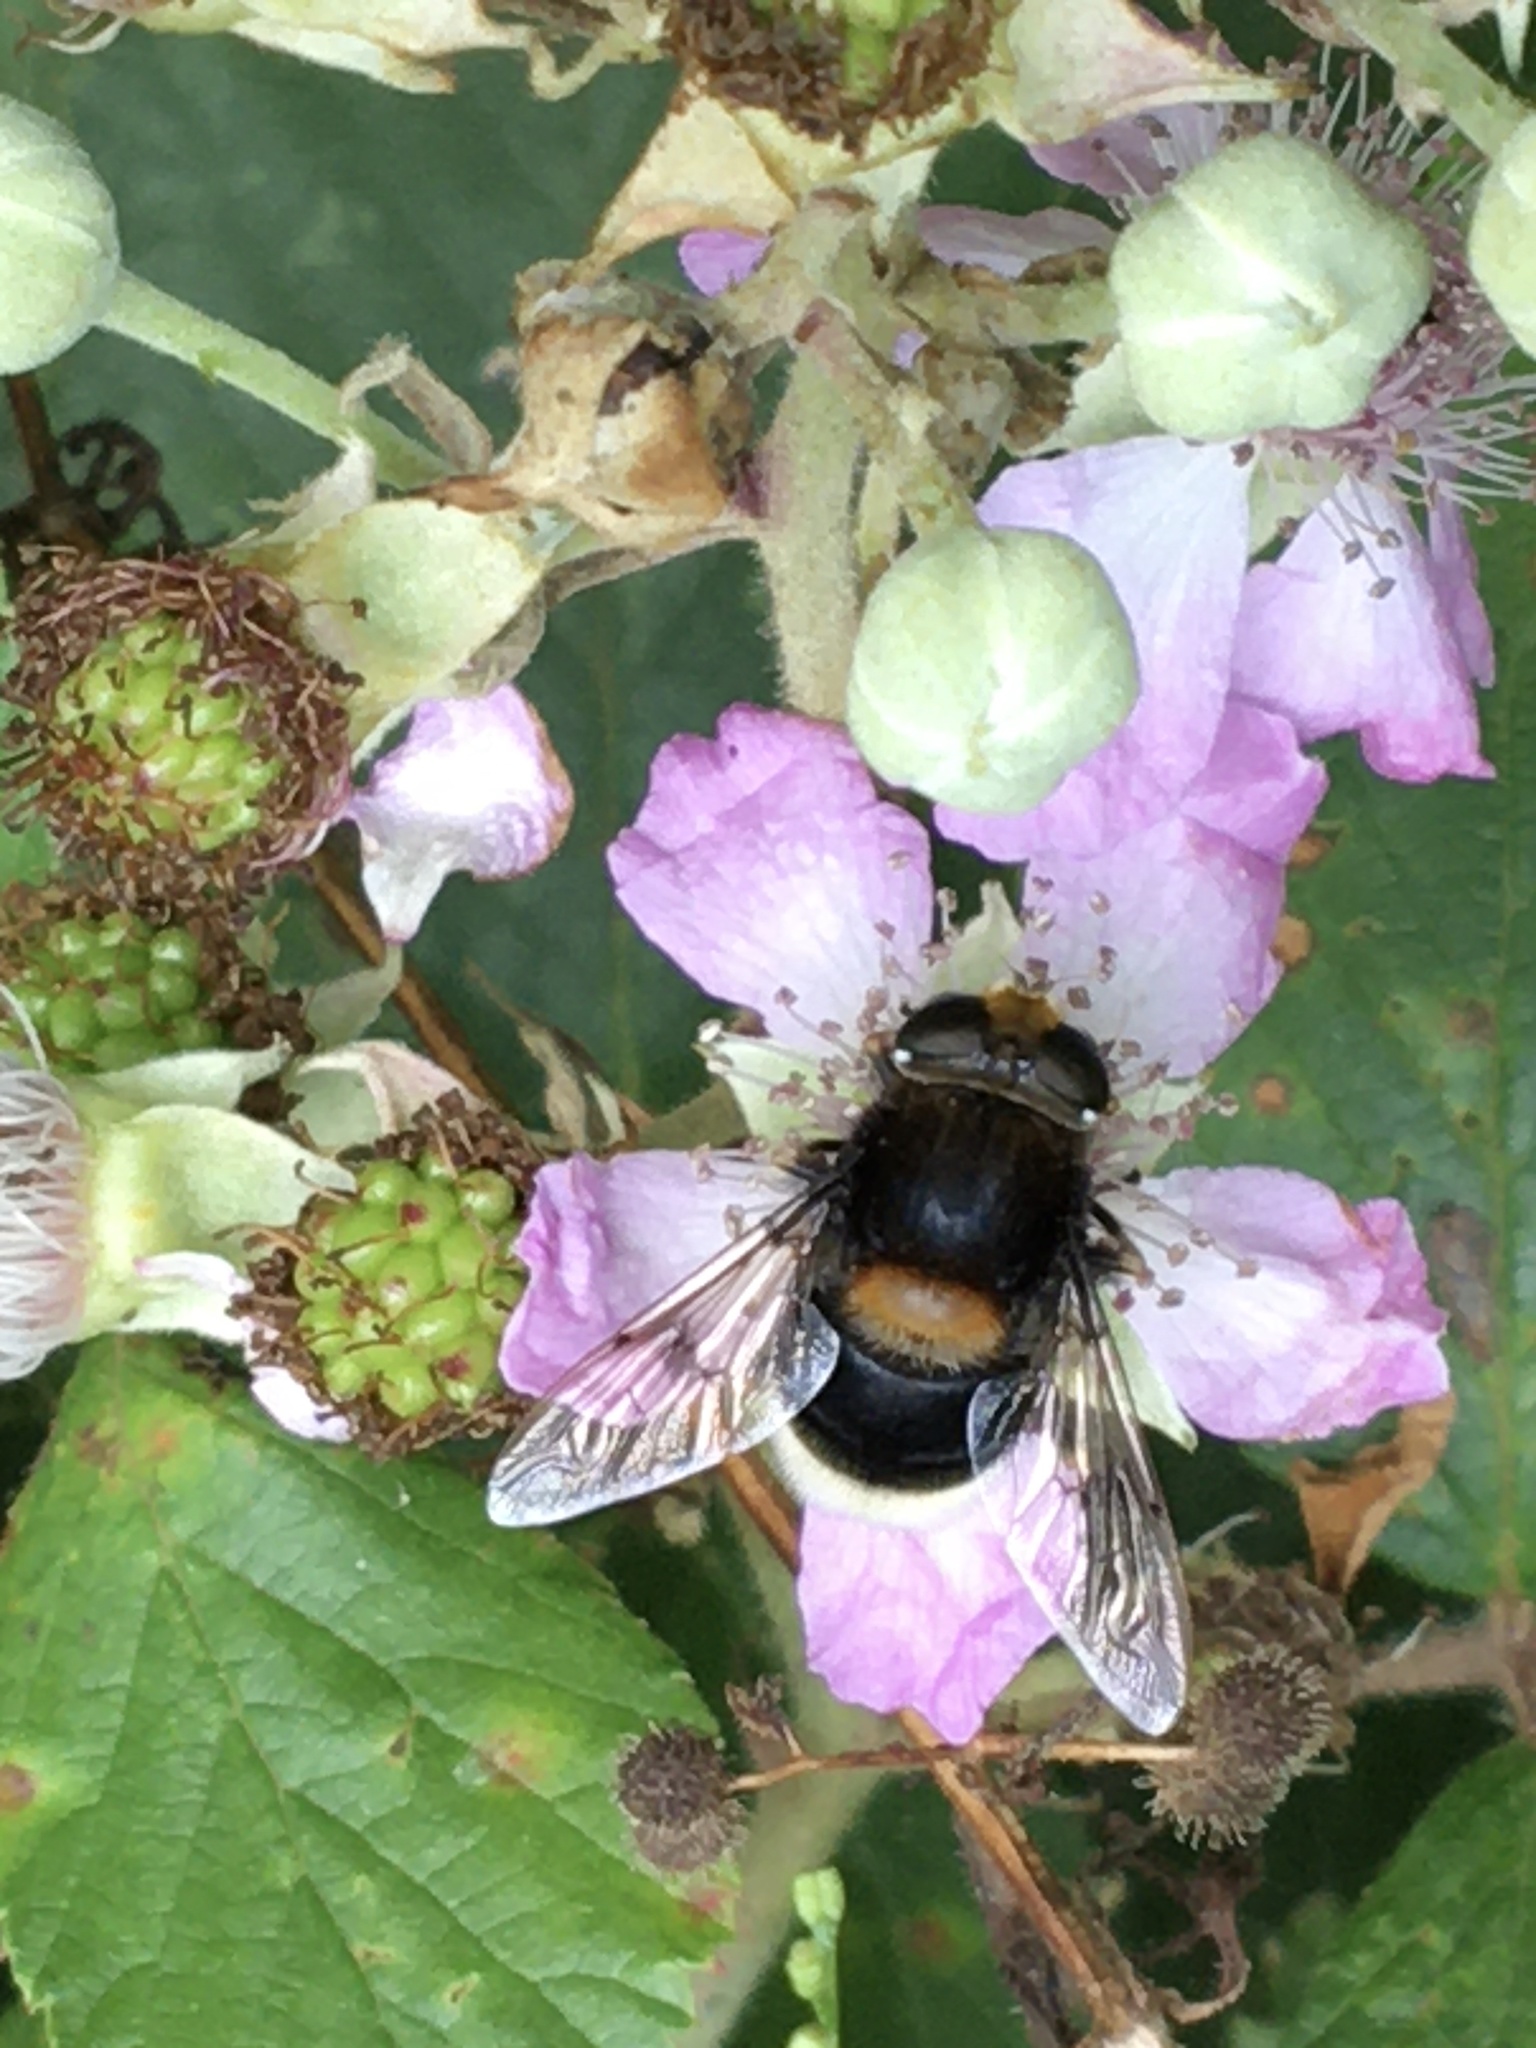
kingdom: Animalia
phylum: Arthropoda
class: Insecta
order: Diptera
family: Syrphidae
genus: Eristalis
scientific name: Eristalis intricaria
